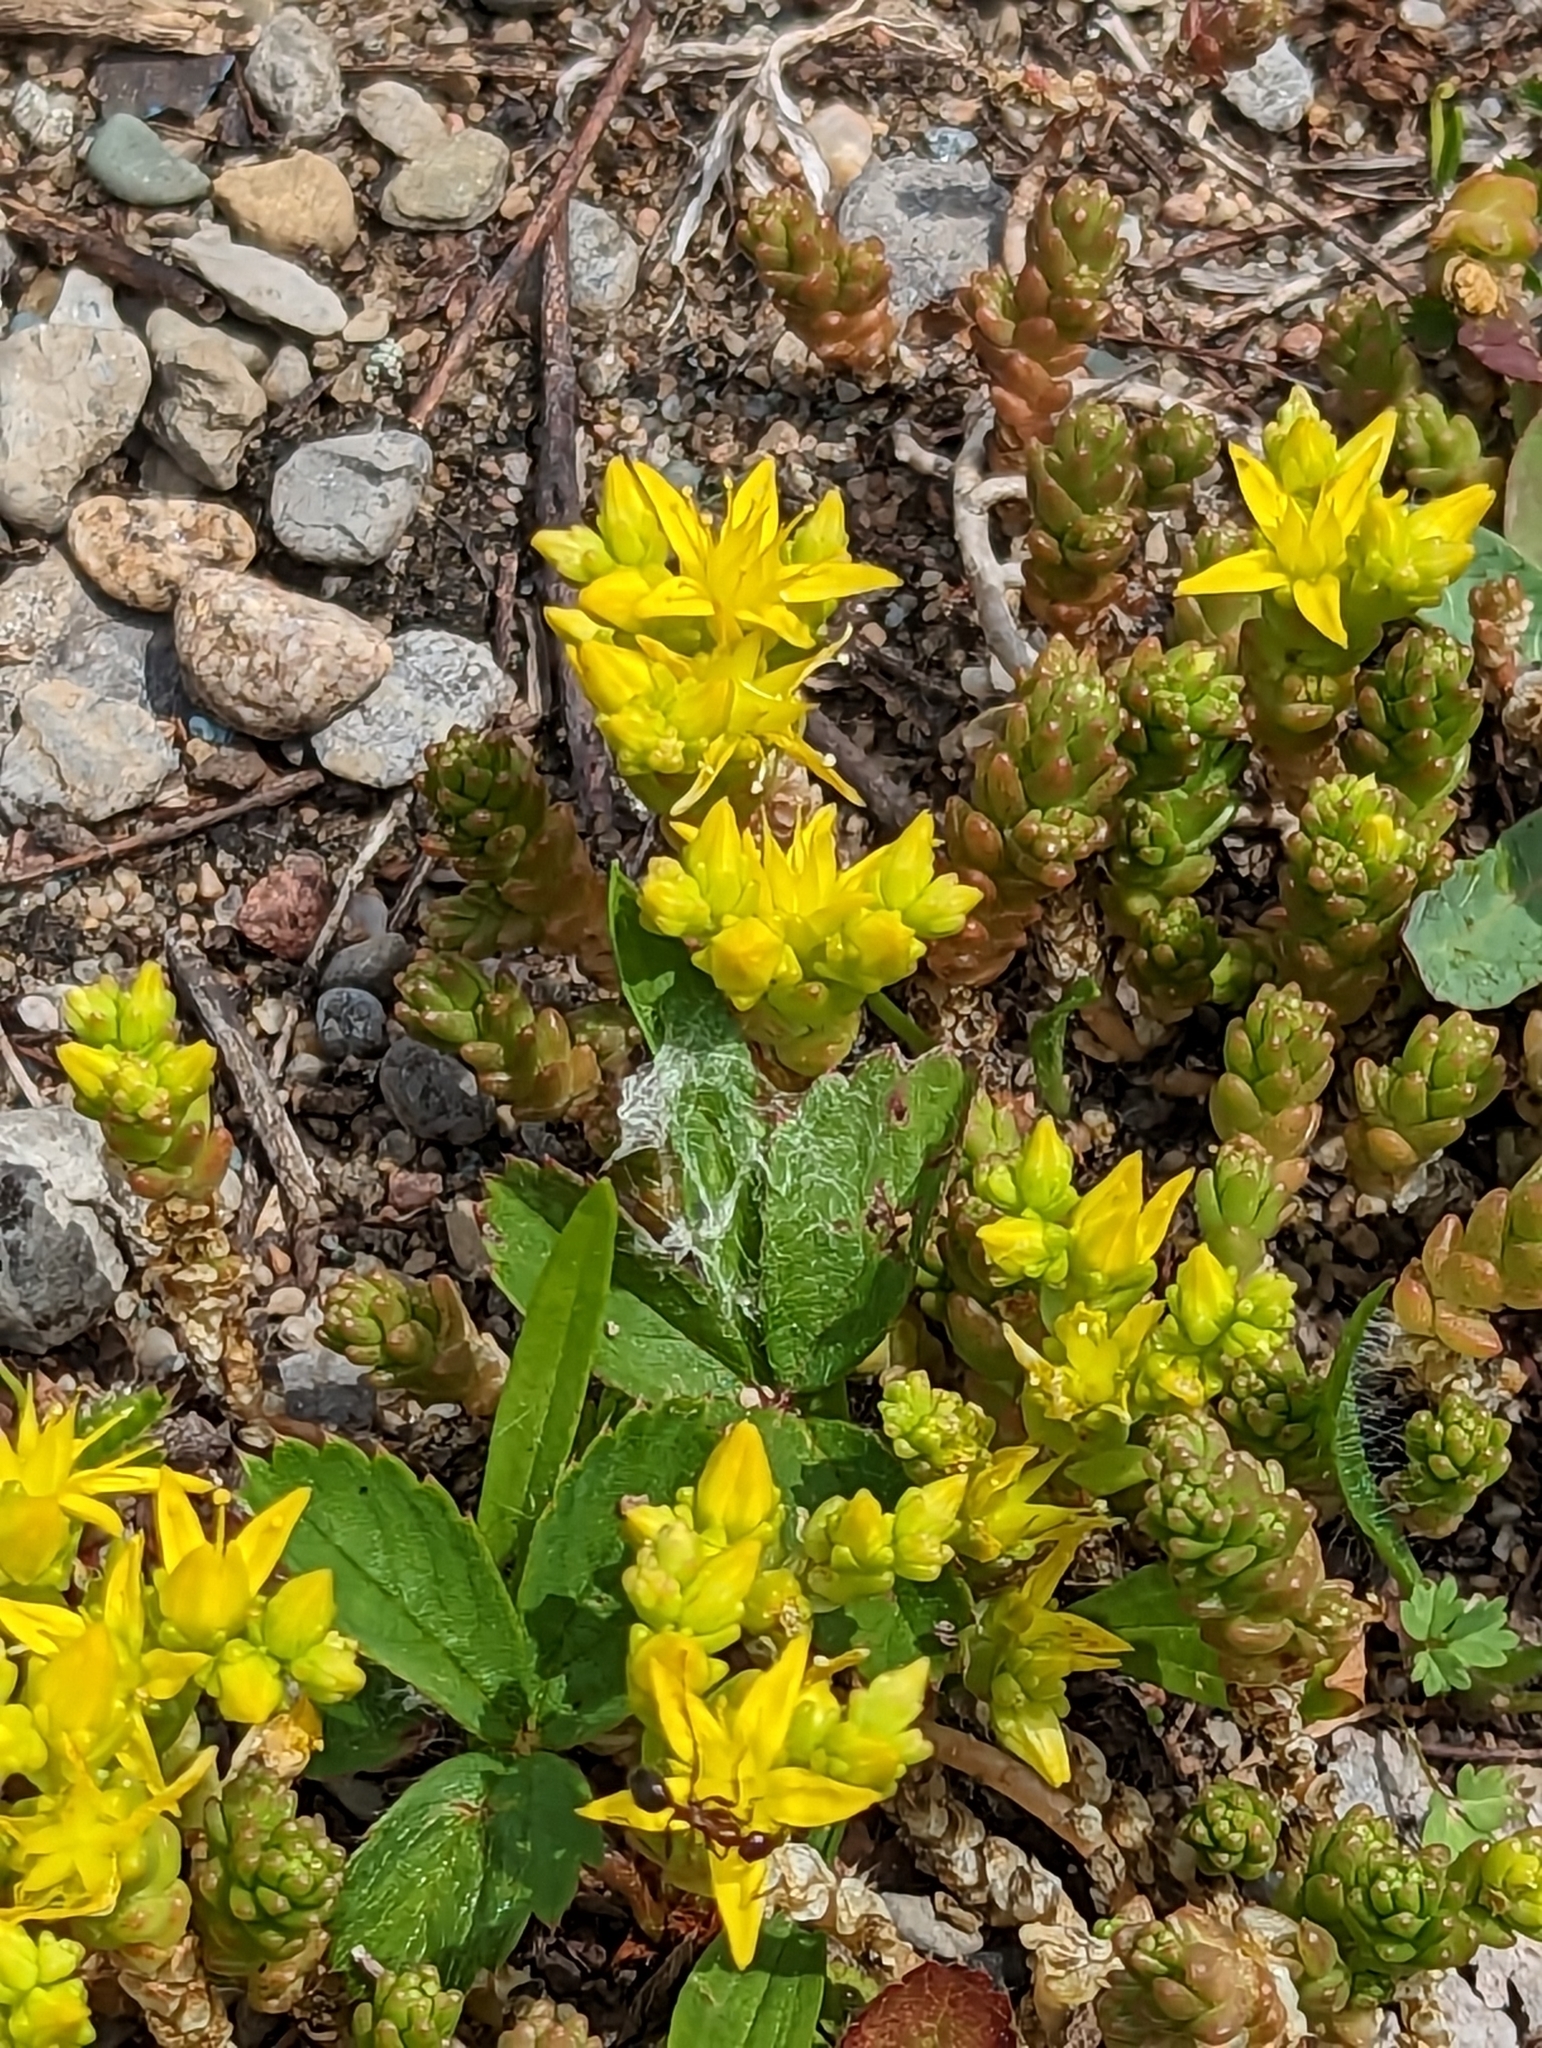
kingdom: Plantae
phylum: Tracheophyta
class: Magnoliopsida
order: Saxifragales
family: Crassulaceae
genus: Sedum
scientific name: Sedum acre
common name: Biting stonecrop
